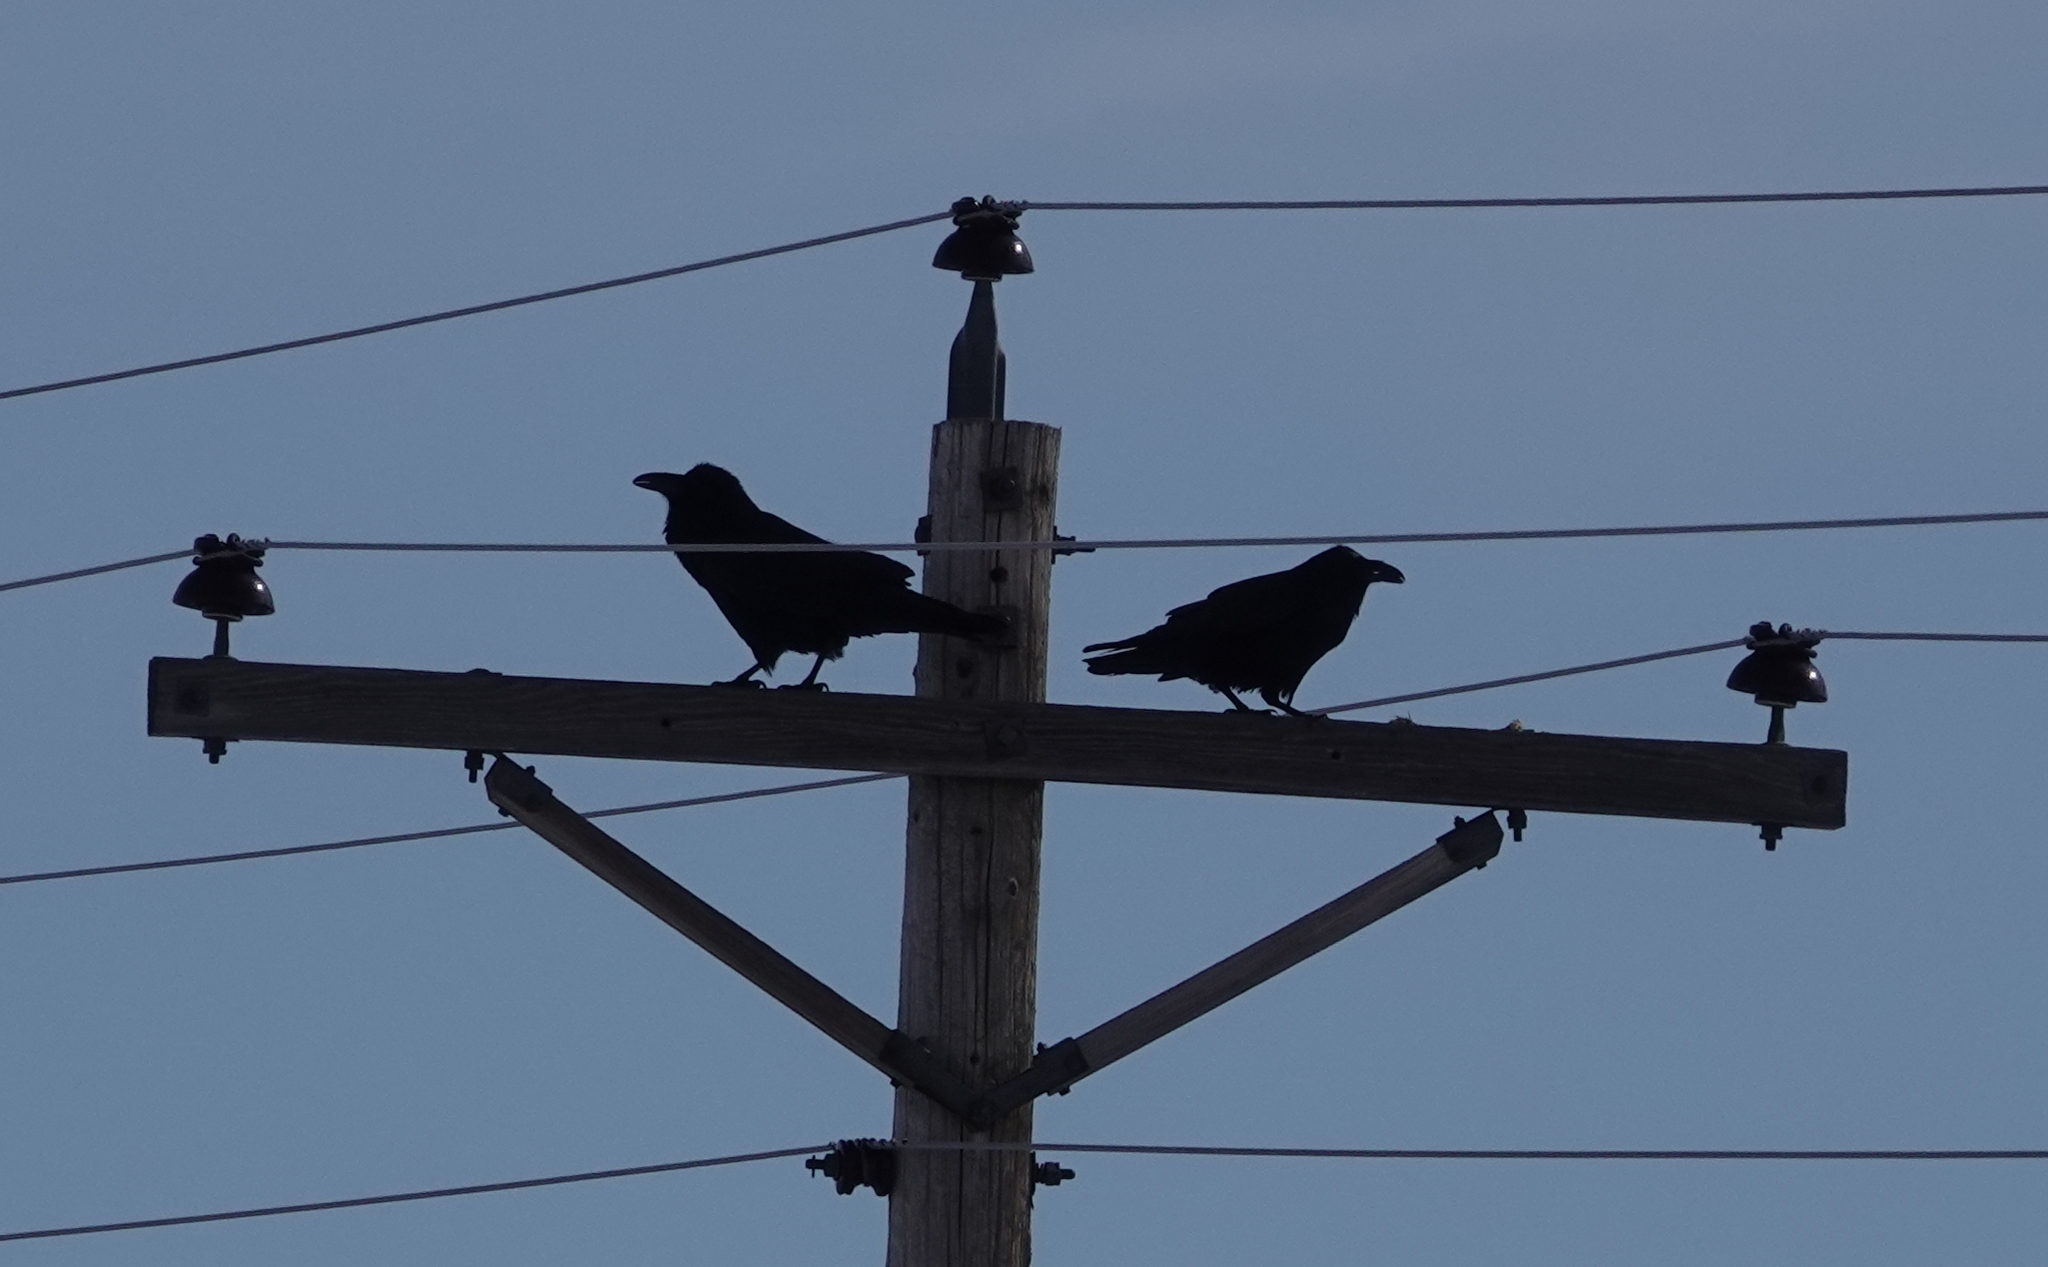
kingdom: Animalia
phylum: Chordata
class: Aves
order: Passeriformes
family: Corvidae
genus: Corvus
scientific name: Corvus corax
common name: Common raven
